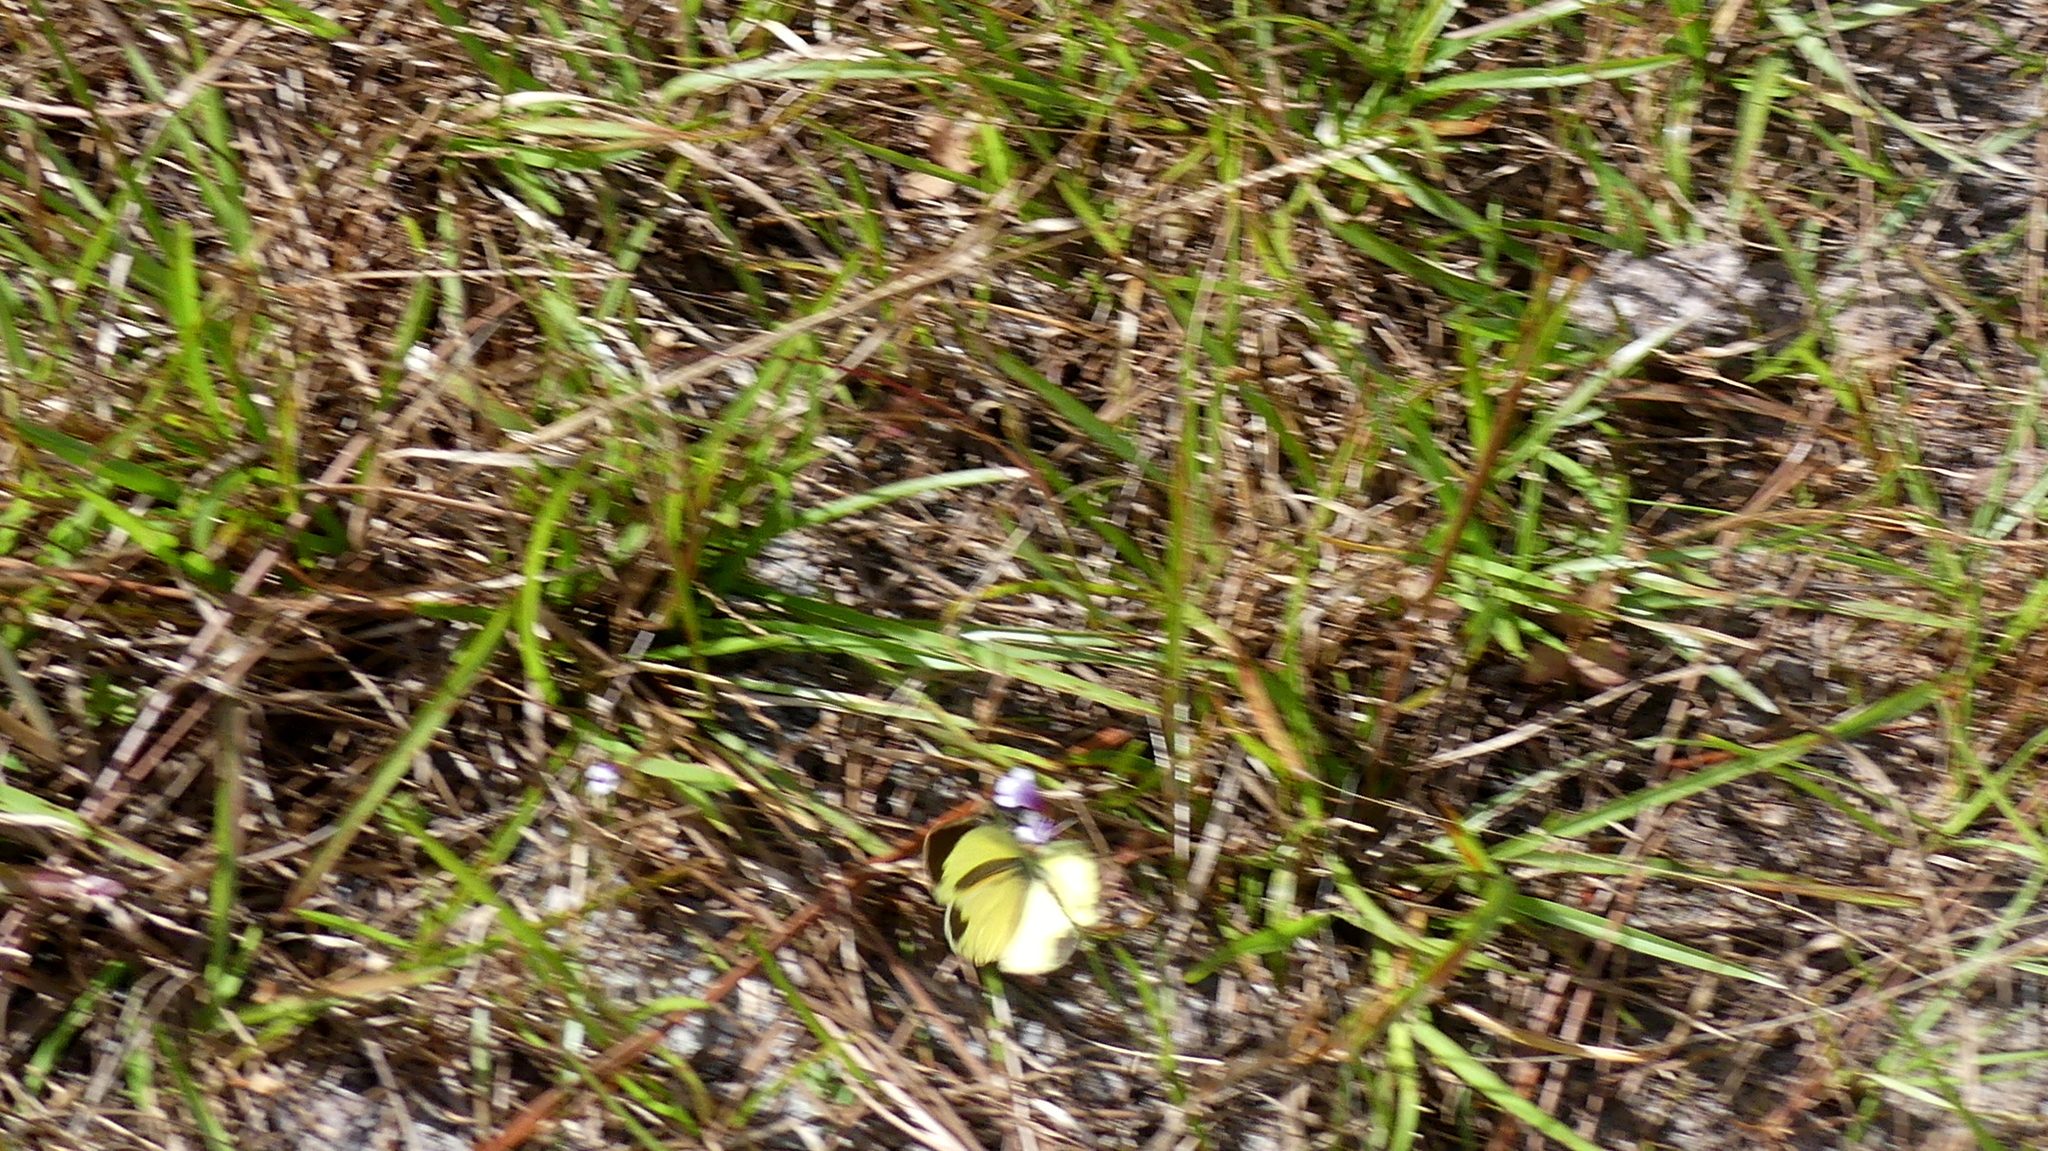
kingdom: Animalia
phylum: Arthropoda
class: Insecta
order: Lepidoptera
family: Pieridae
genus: Eurema
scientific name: Eurema daira
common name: Barred sulphur
